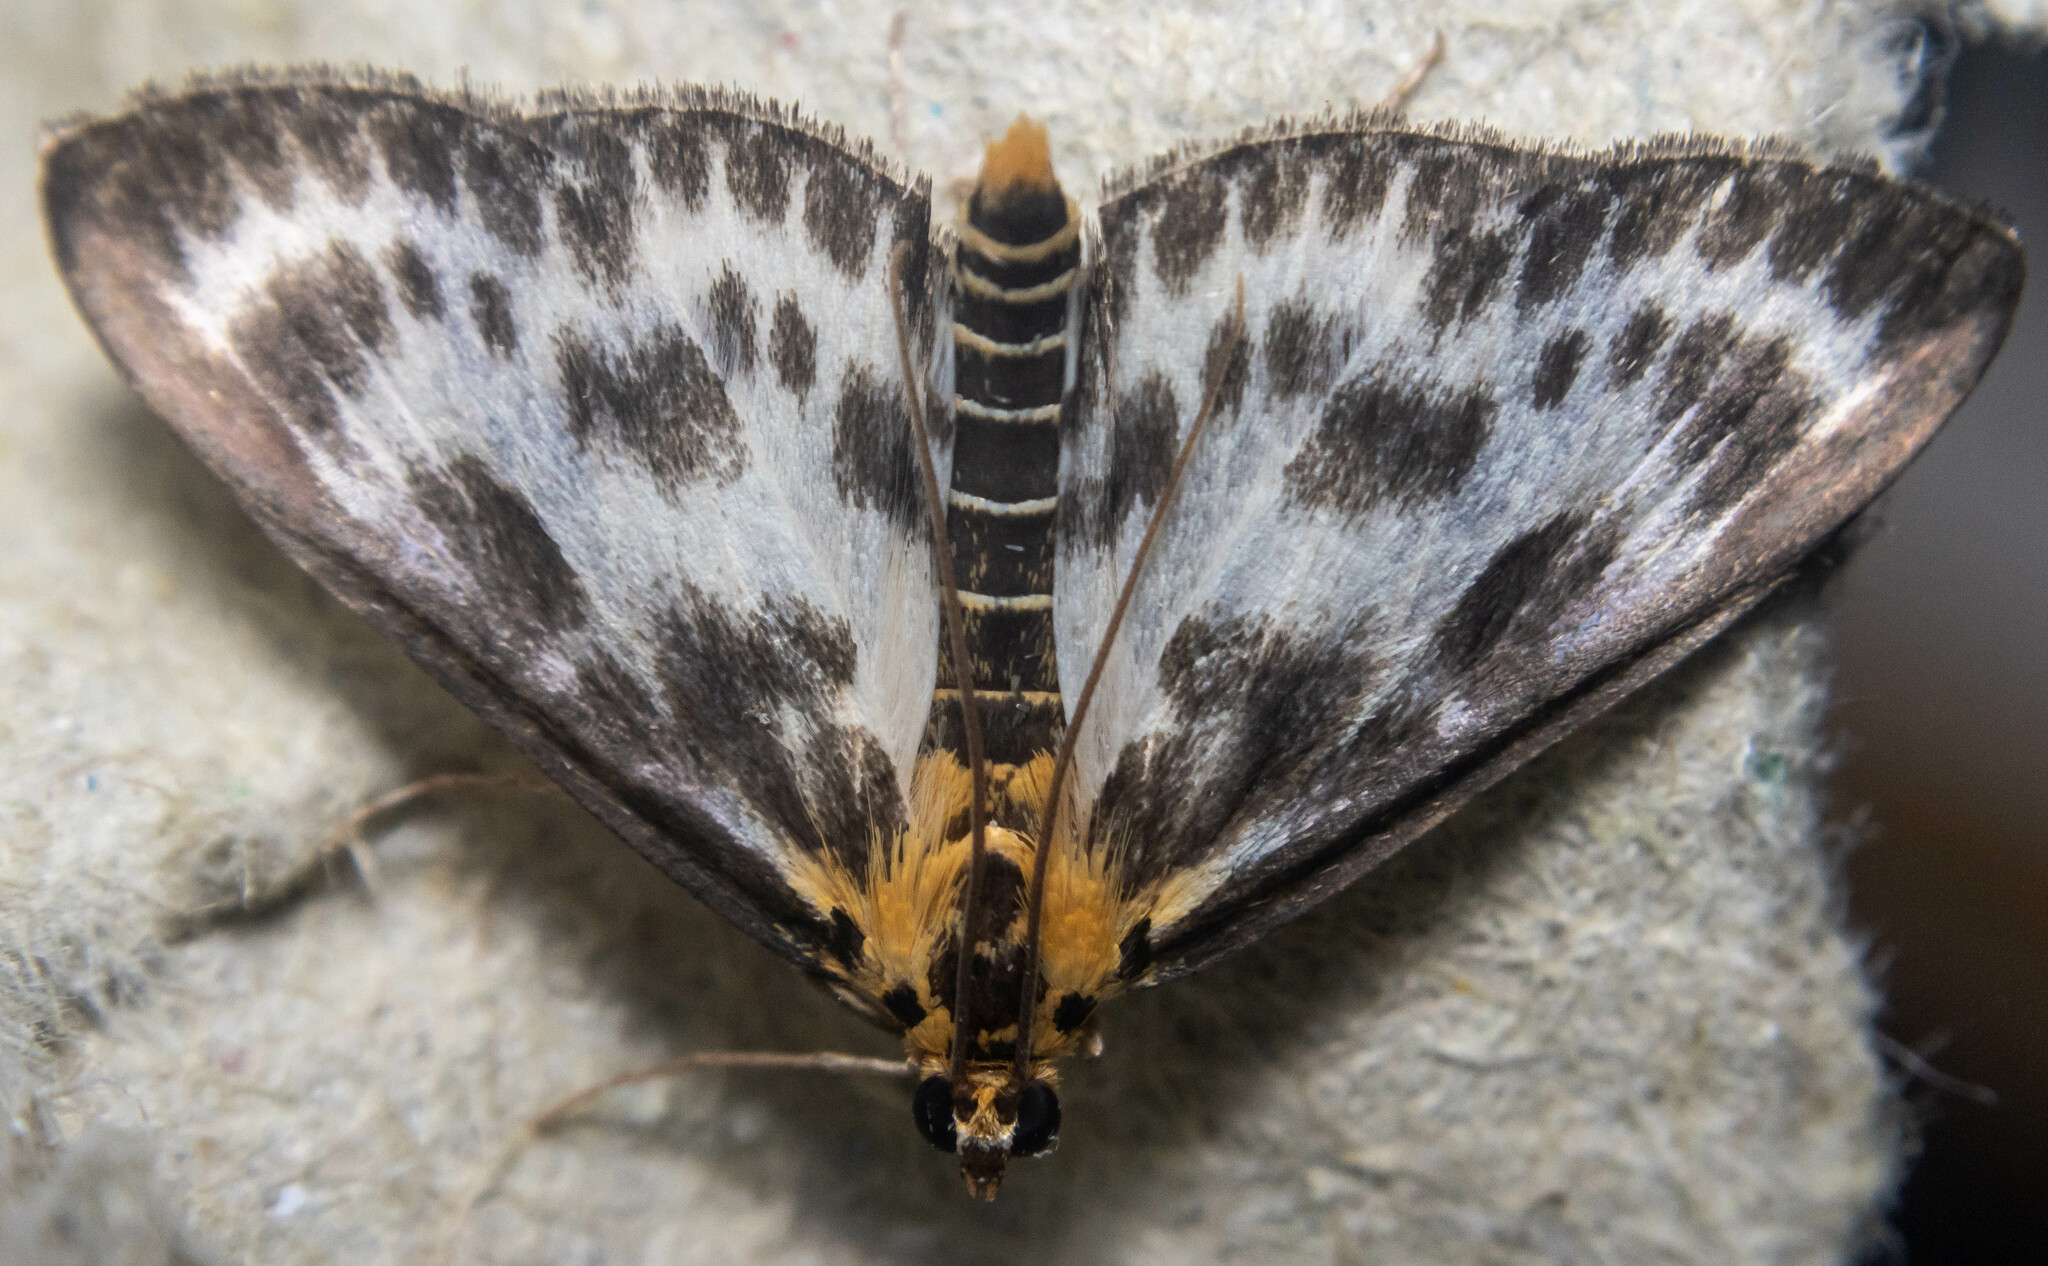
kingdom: Animalia
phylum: Arthropoda
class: Insecta
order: Lepidoptera
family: Crambidae
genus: Anania
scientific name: Anania hortulata
